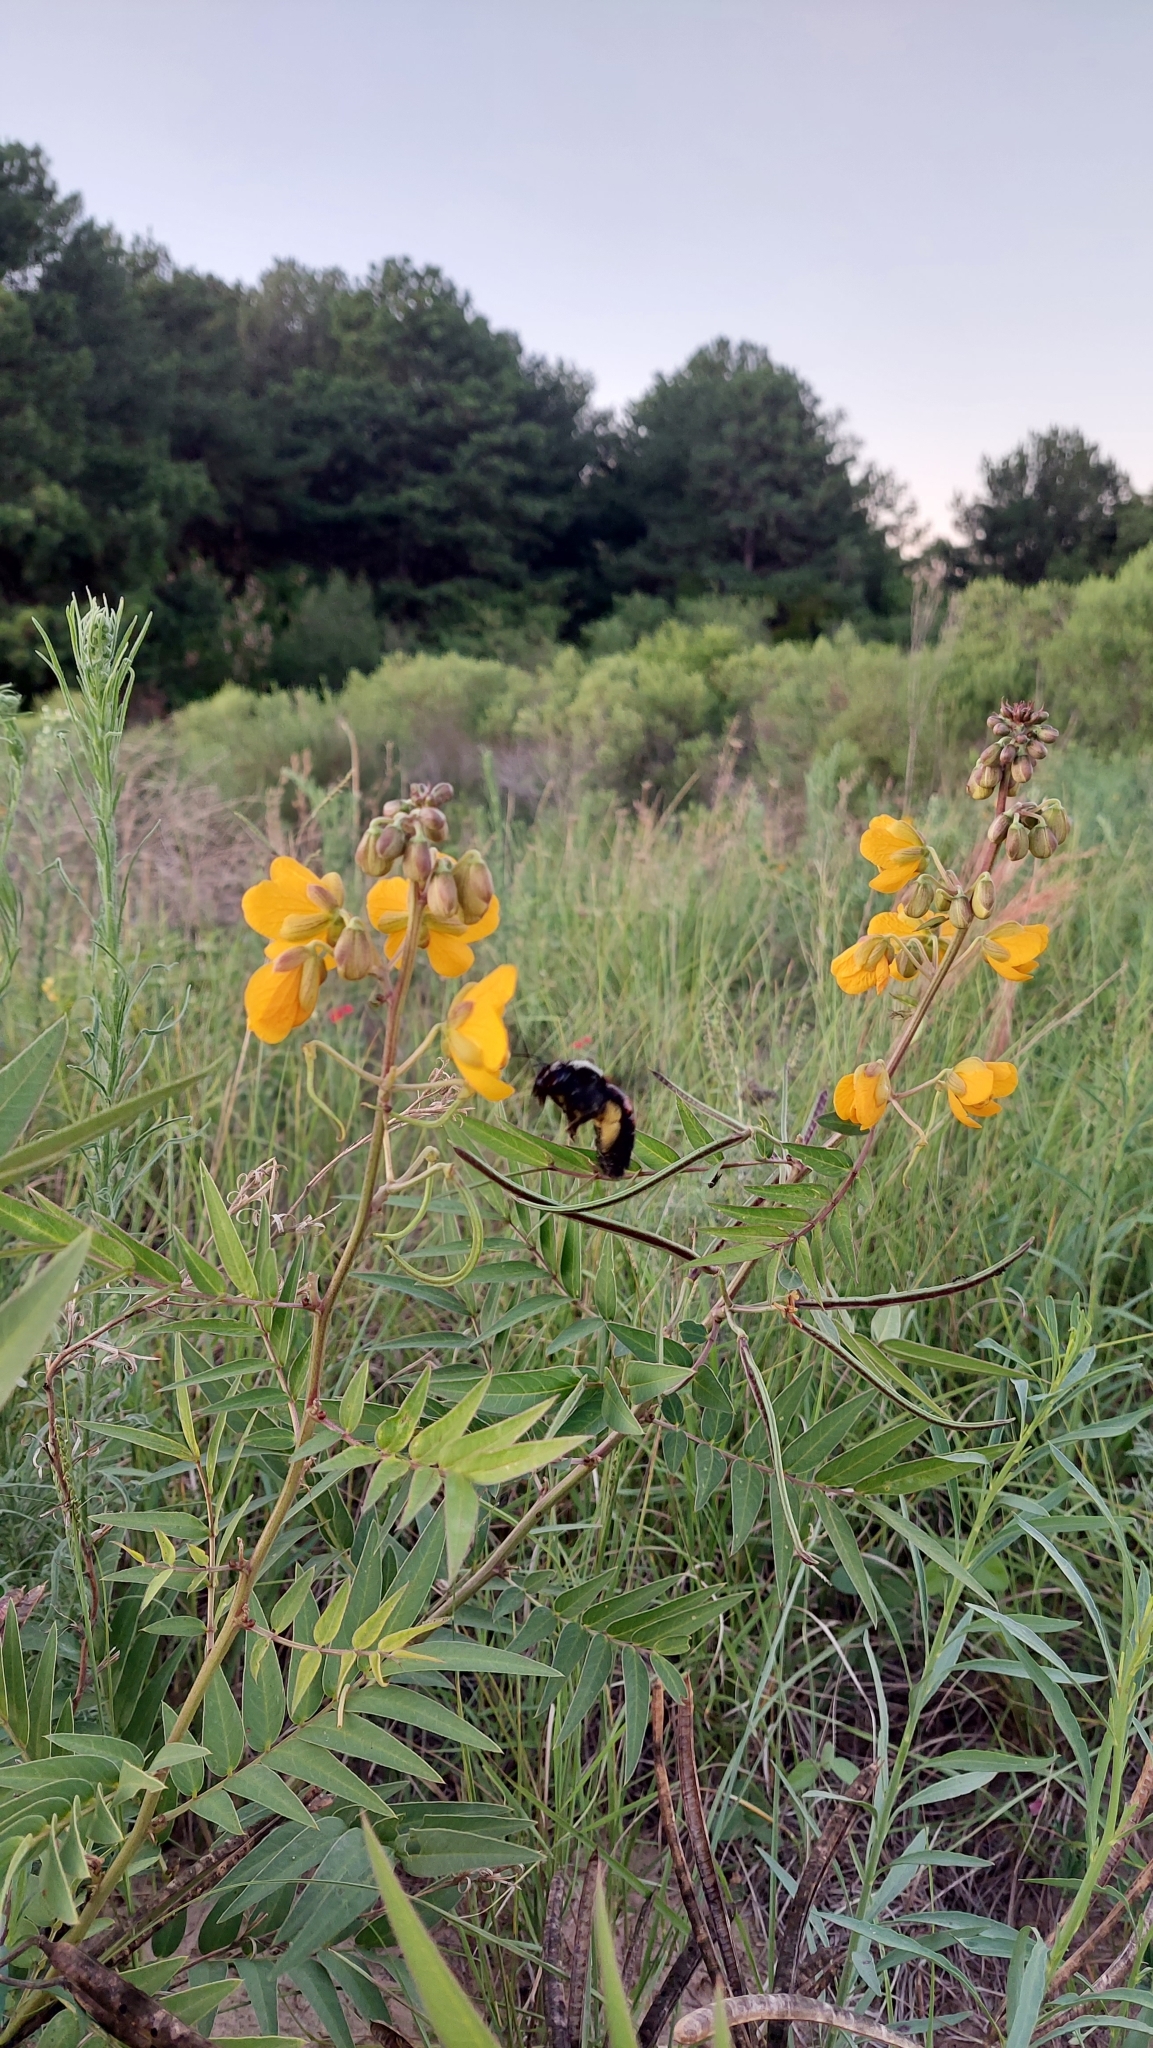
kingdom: Animalia
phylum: Arthropoda
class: Insecta
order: Hymenoptera
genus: Neoxylocopa
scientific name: Neoxylocopa
